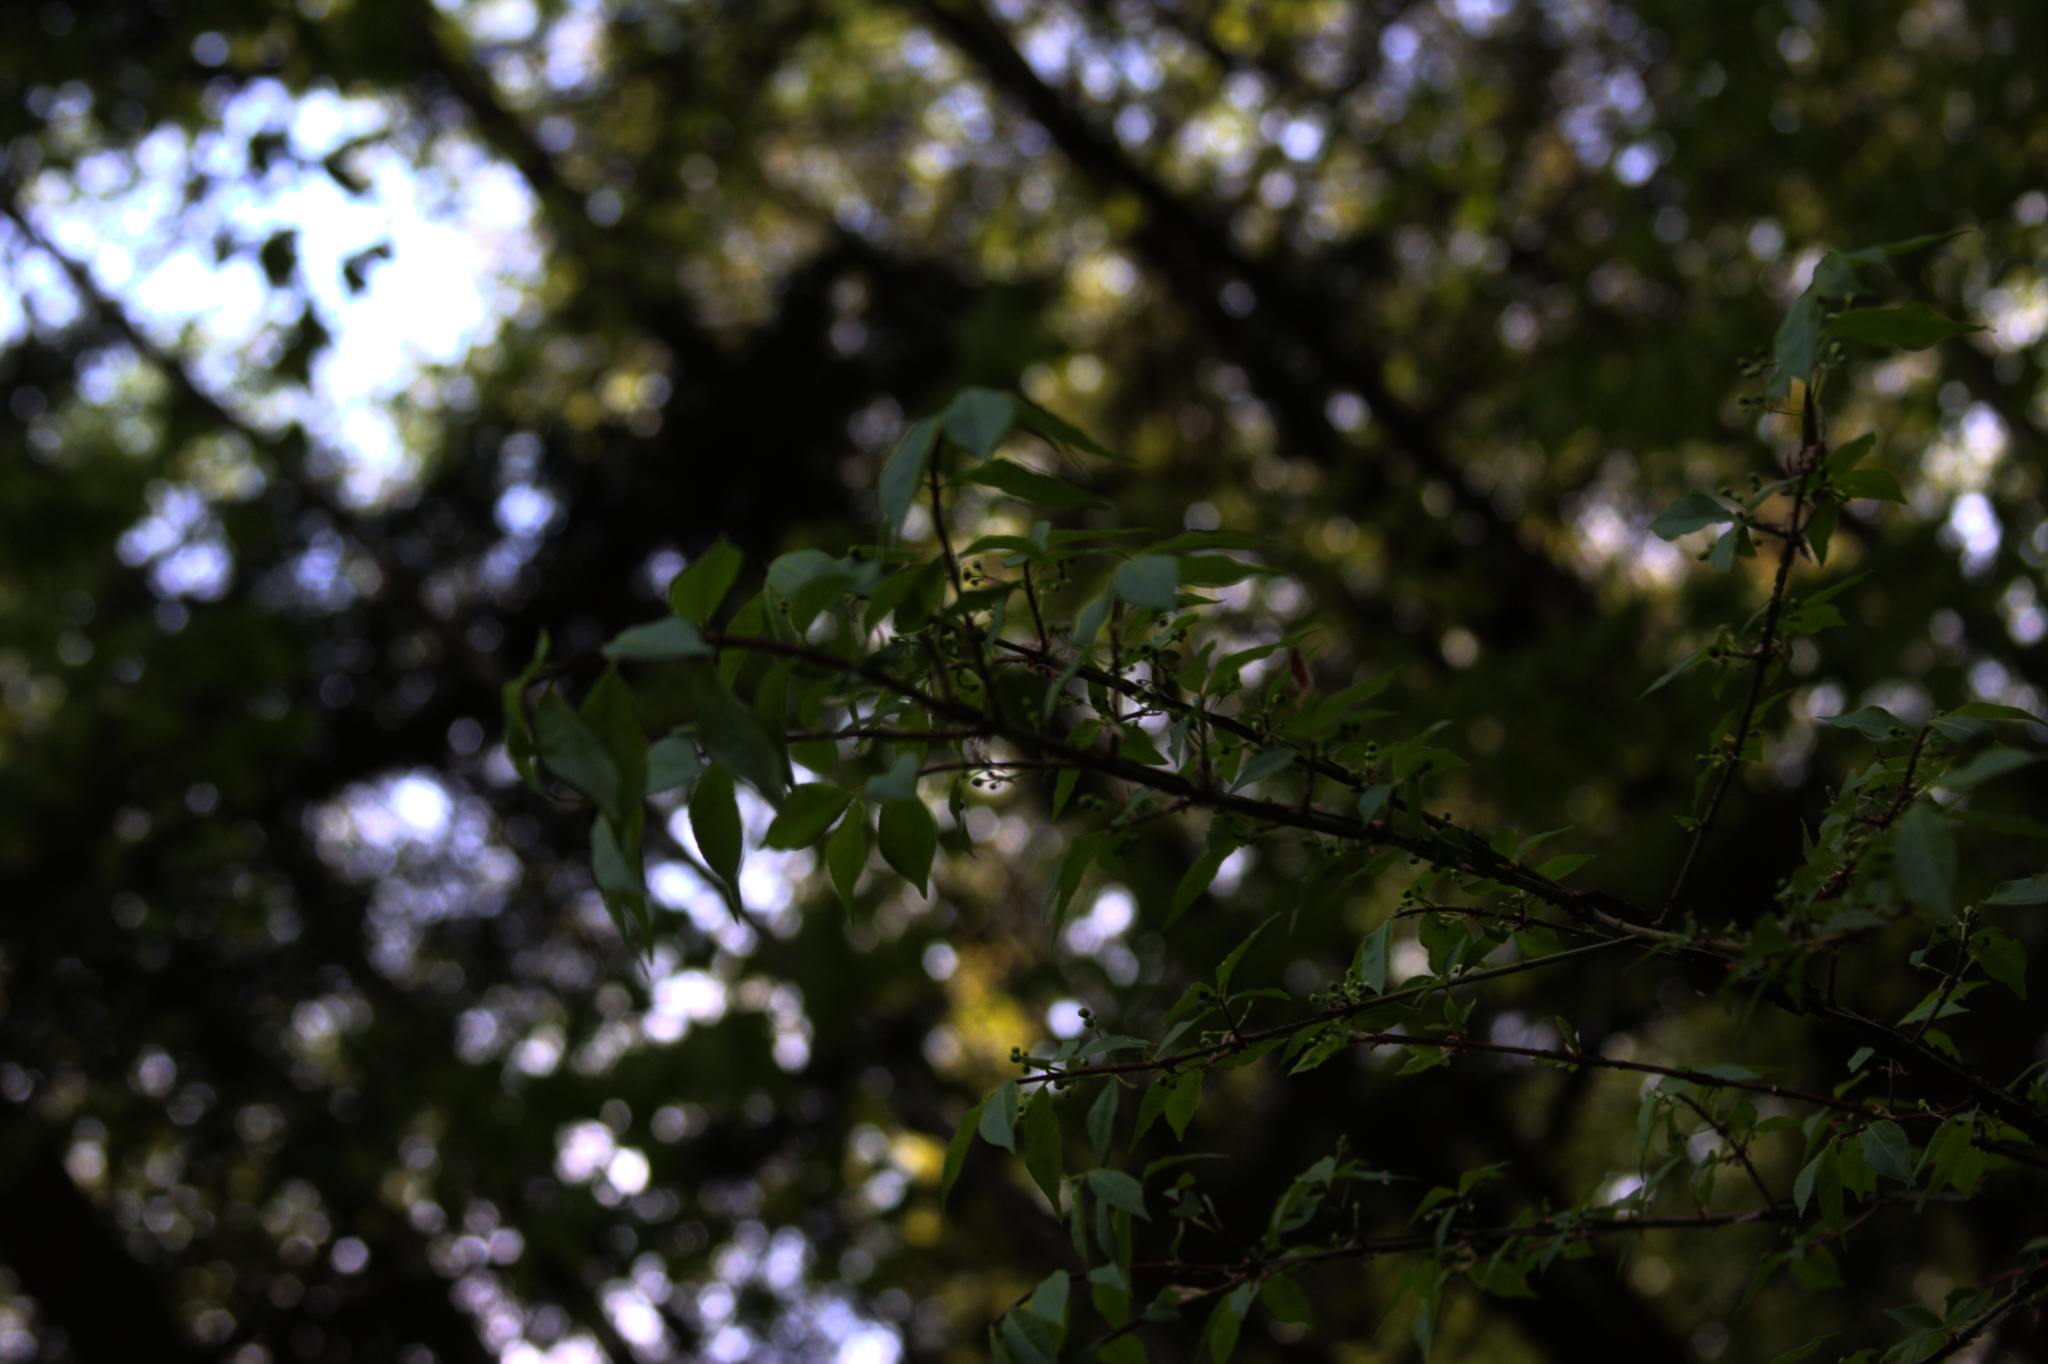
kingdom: Plantae
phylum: Tracheophyta
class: Magnoliopsida
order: Celastrales
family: Celastraceae
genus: Euonymus
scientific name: Euonymus alatus
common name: Winged euonymus
